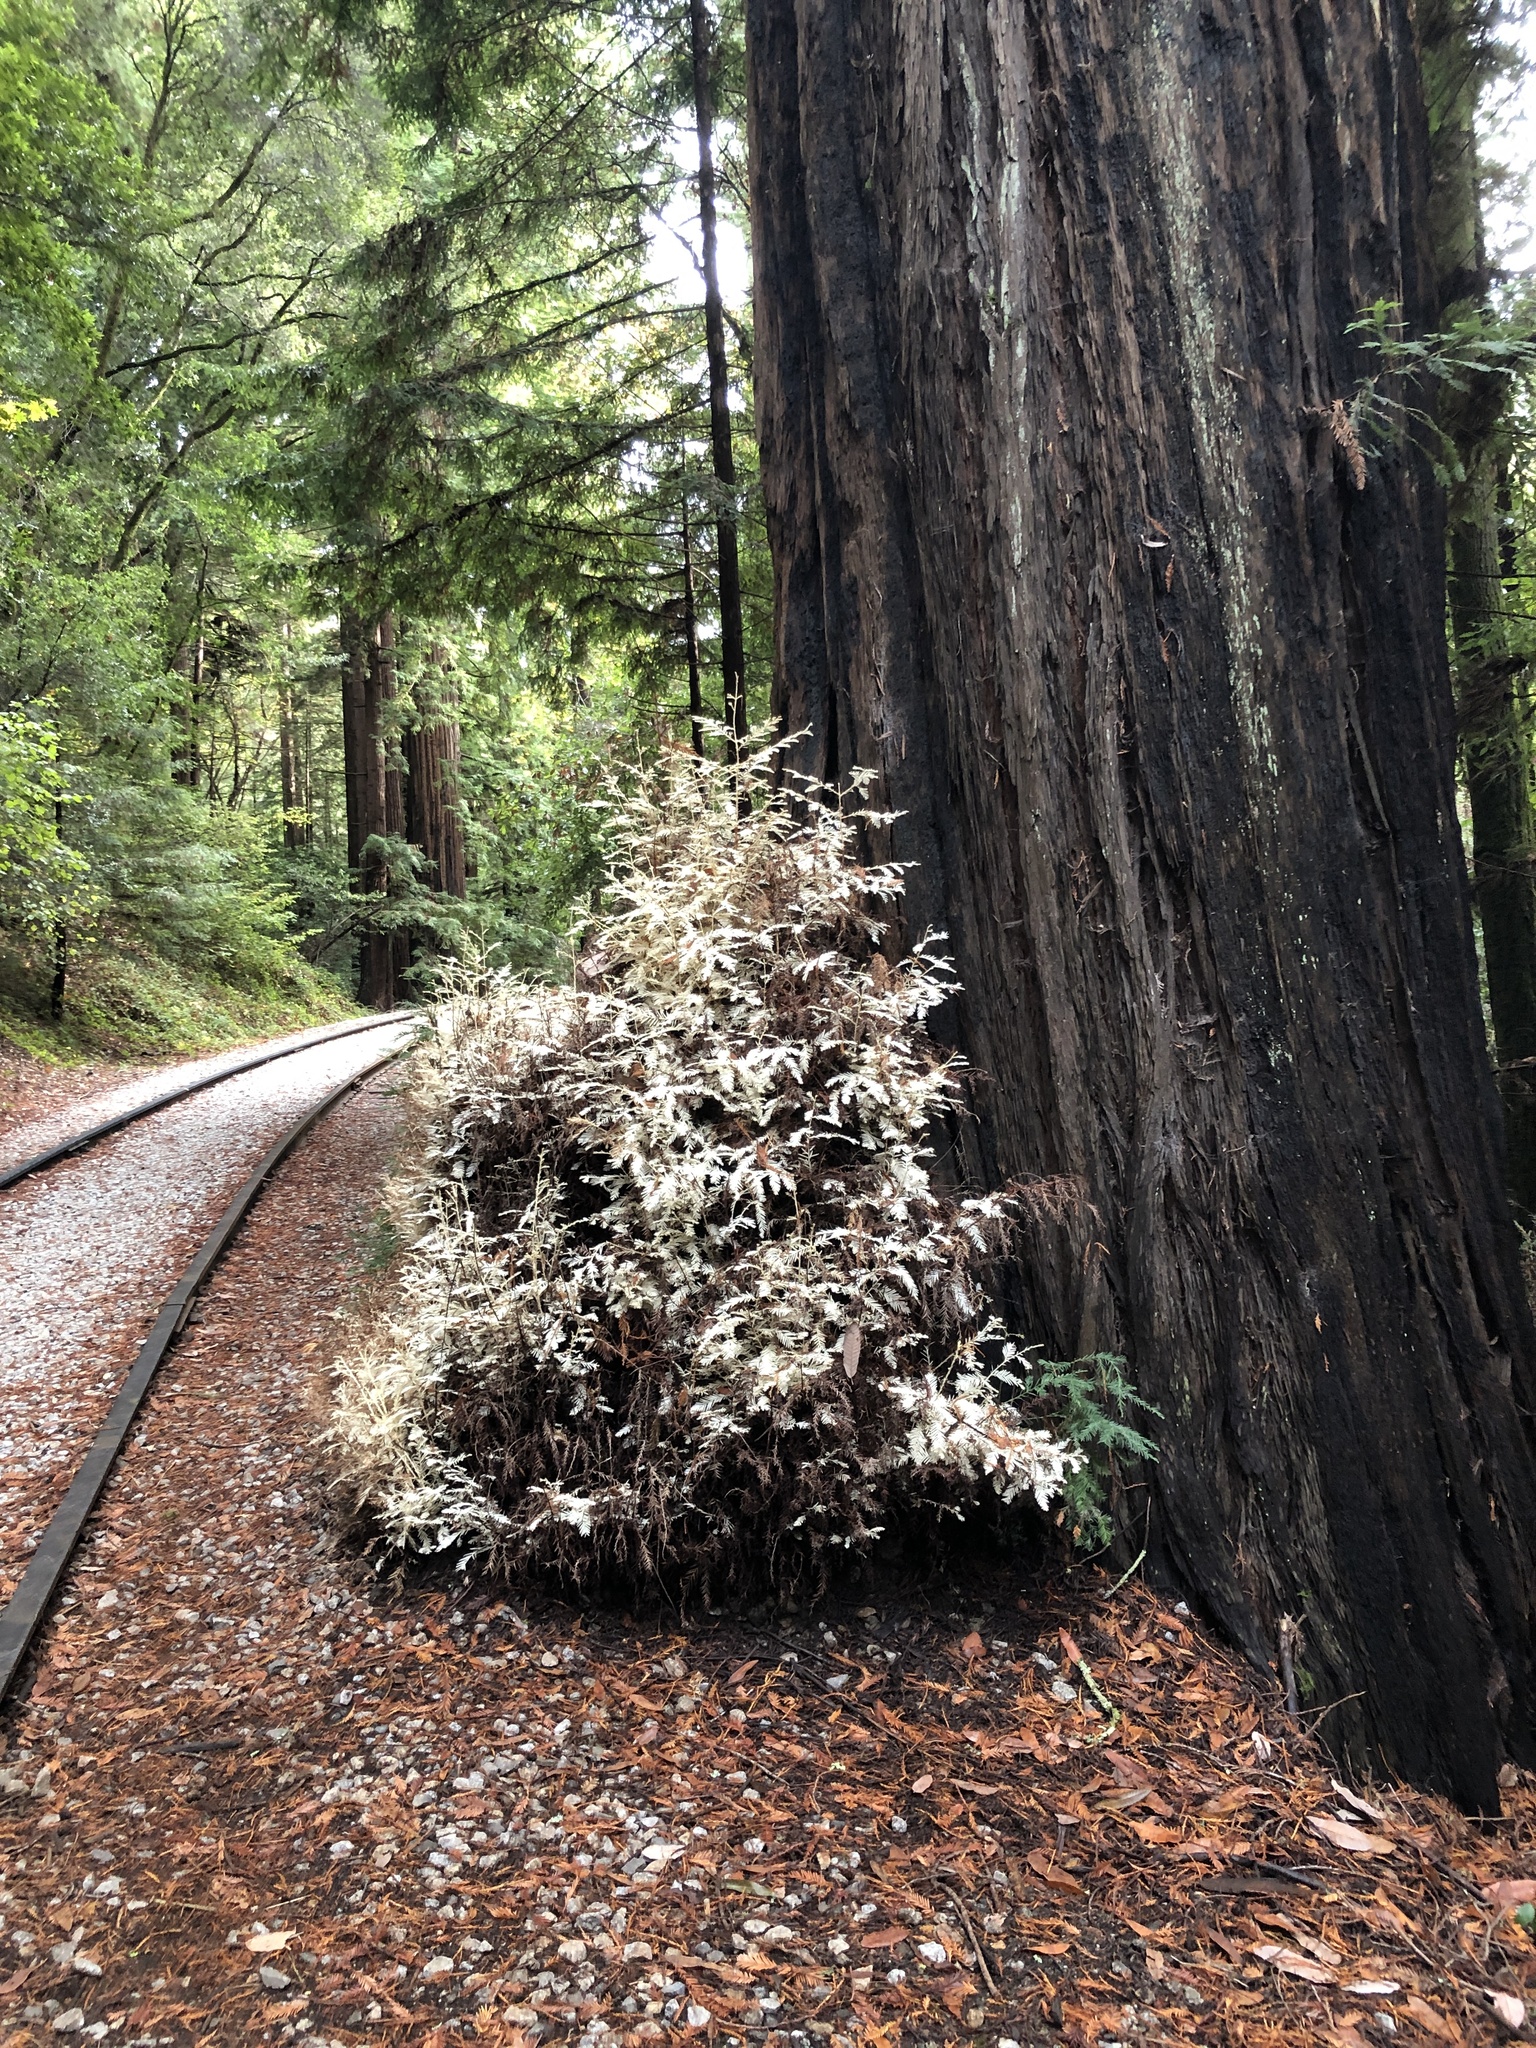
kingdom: Plantae
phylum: Tracheophyta
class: Pinopsida
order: Pinales
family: Cupressaceae
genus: Sequoia
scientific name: Sequoia sempervirens
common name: Coast redwood
